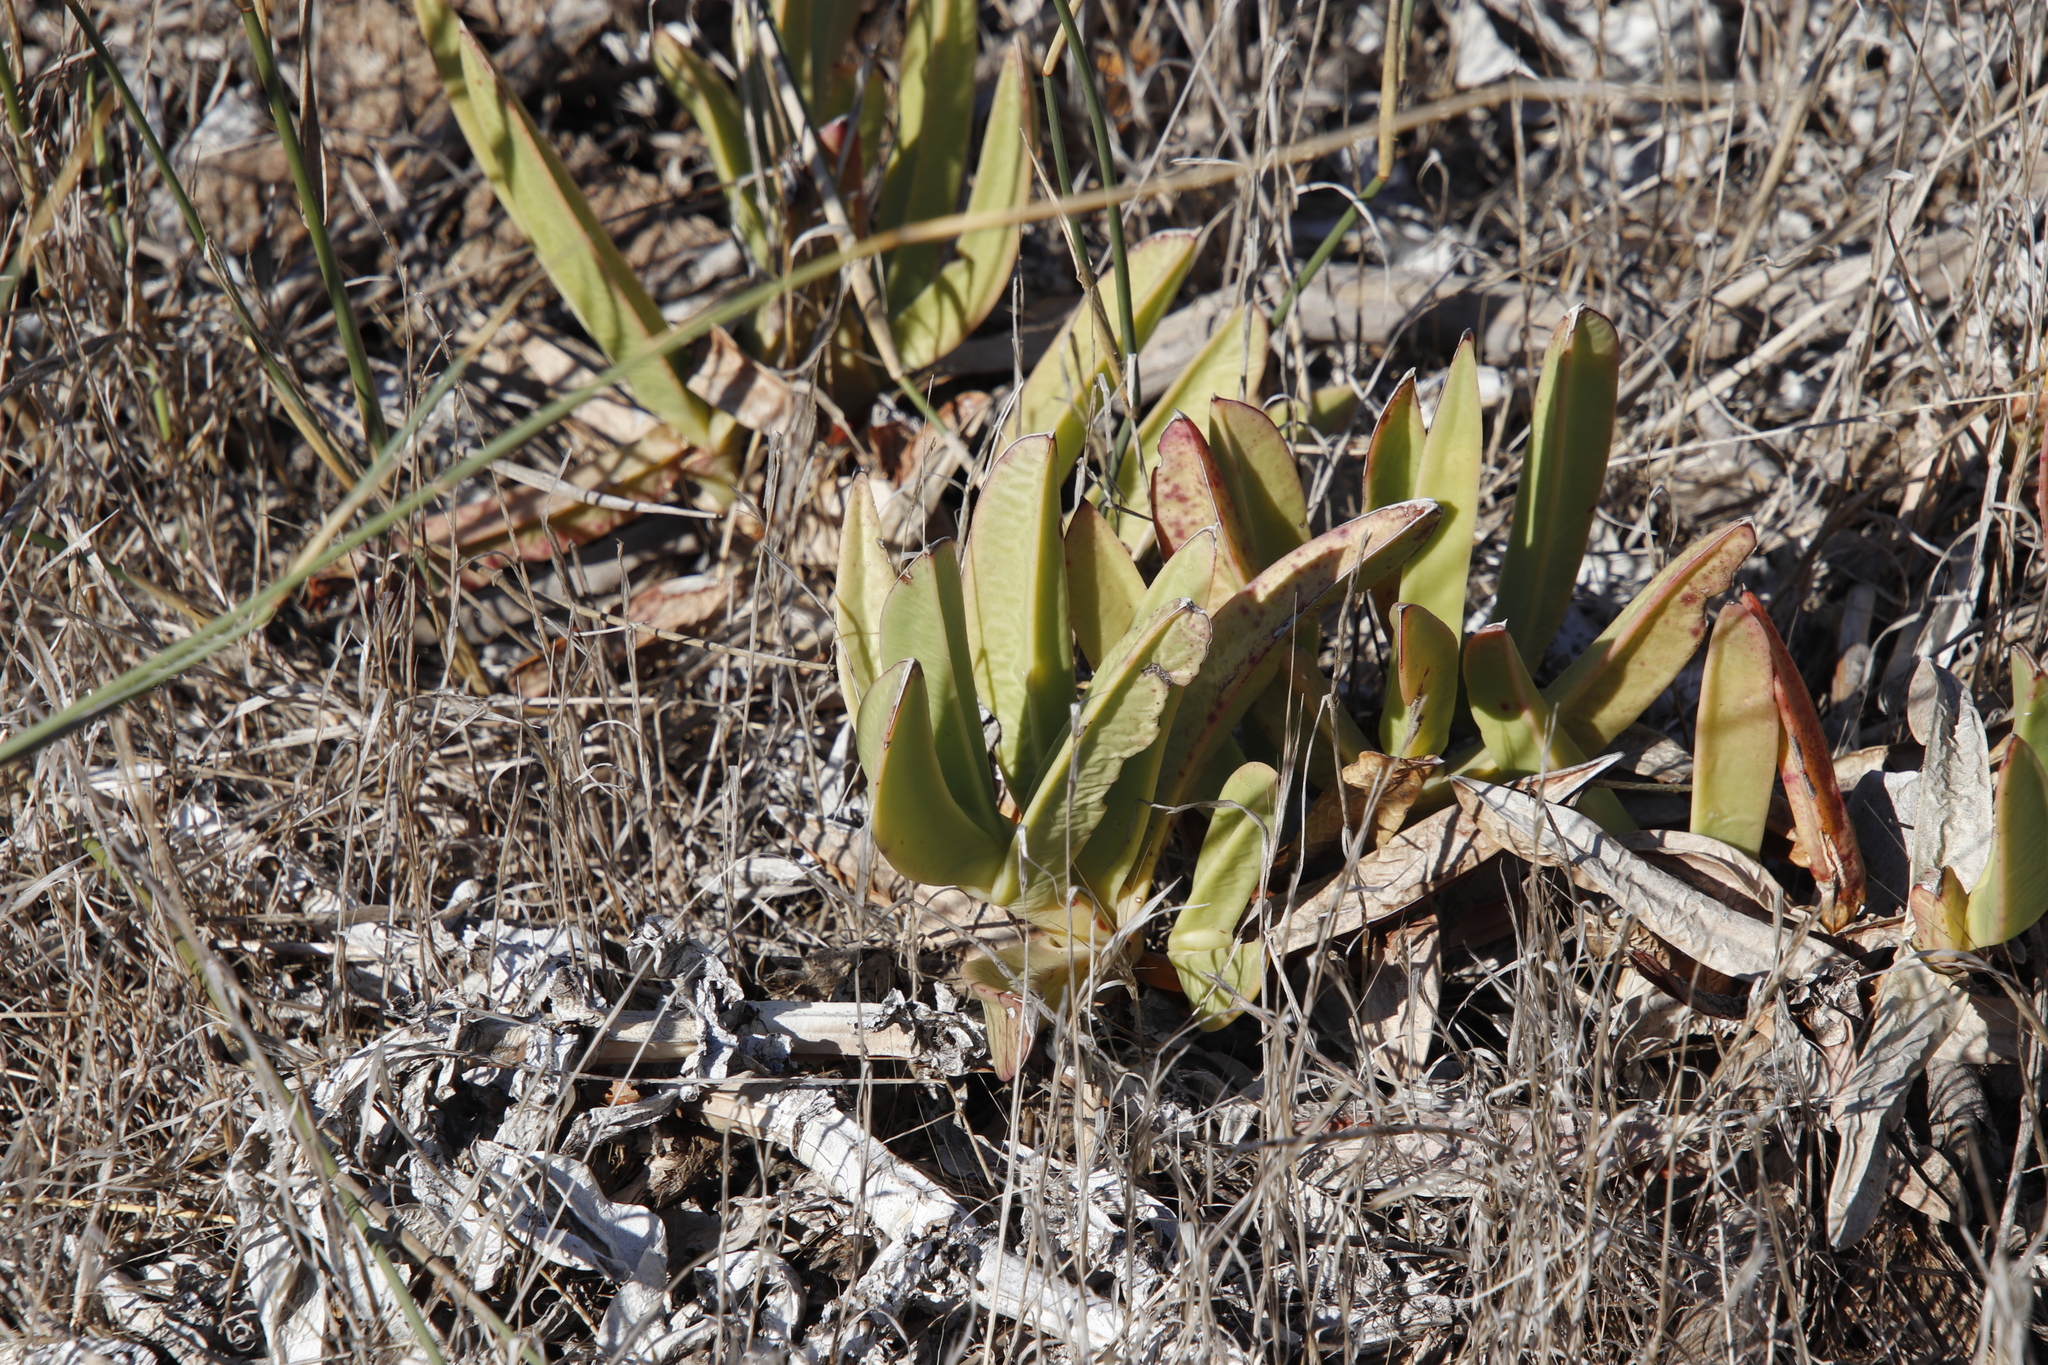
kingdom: Plantae
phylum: Tracheophyta
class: Magnoliopsida
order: Caryophyllales
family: Aizoaceae
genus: Carpobrotus
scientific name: Carpobrotus acinaciformis
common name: Sally-my-handsome
